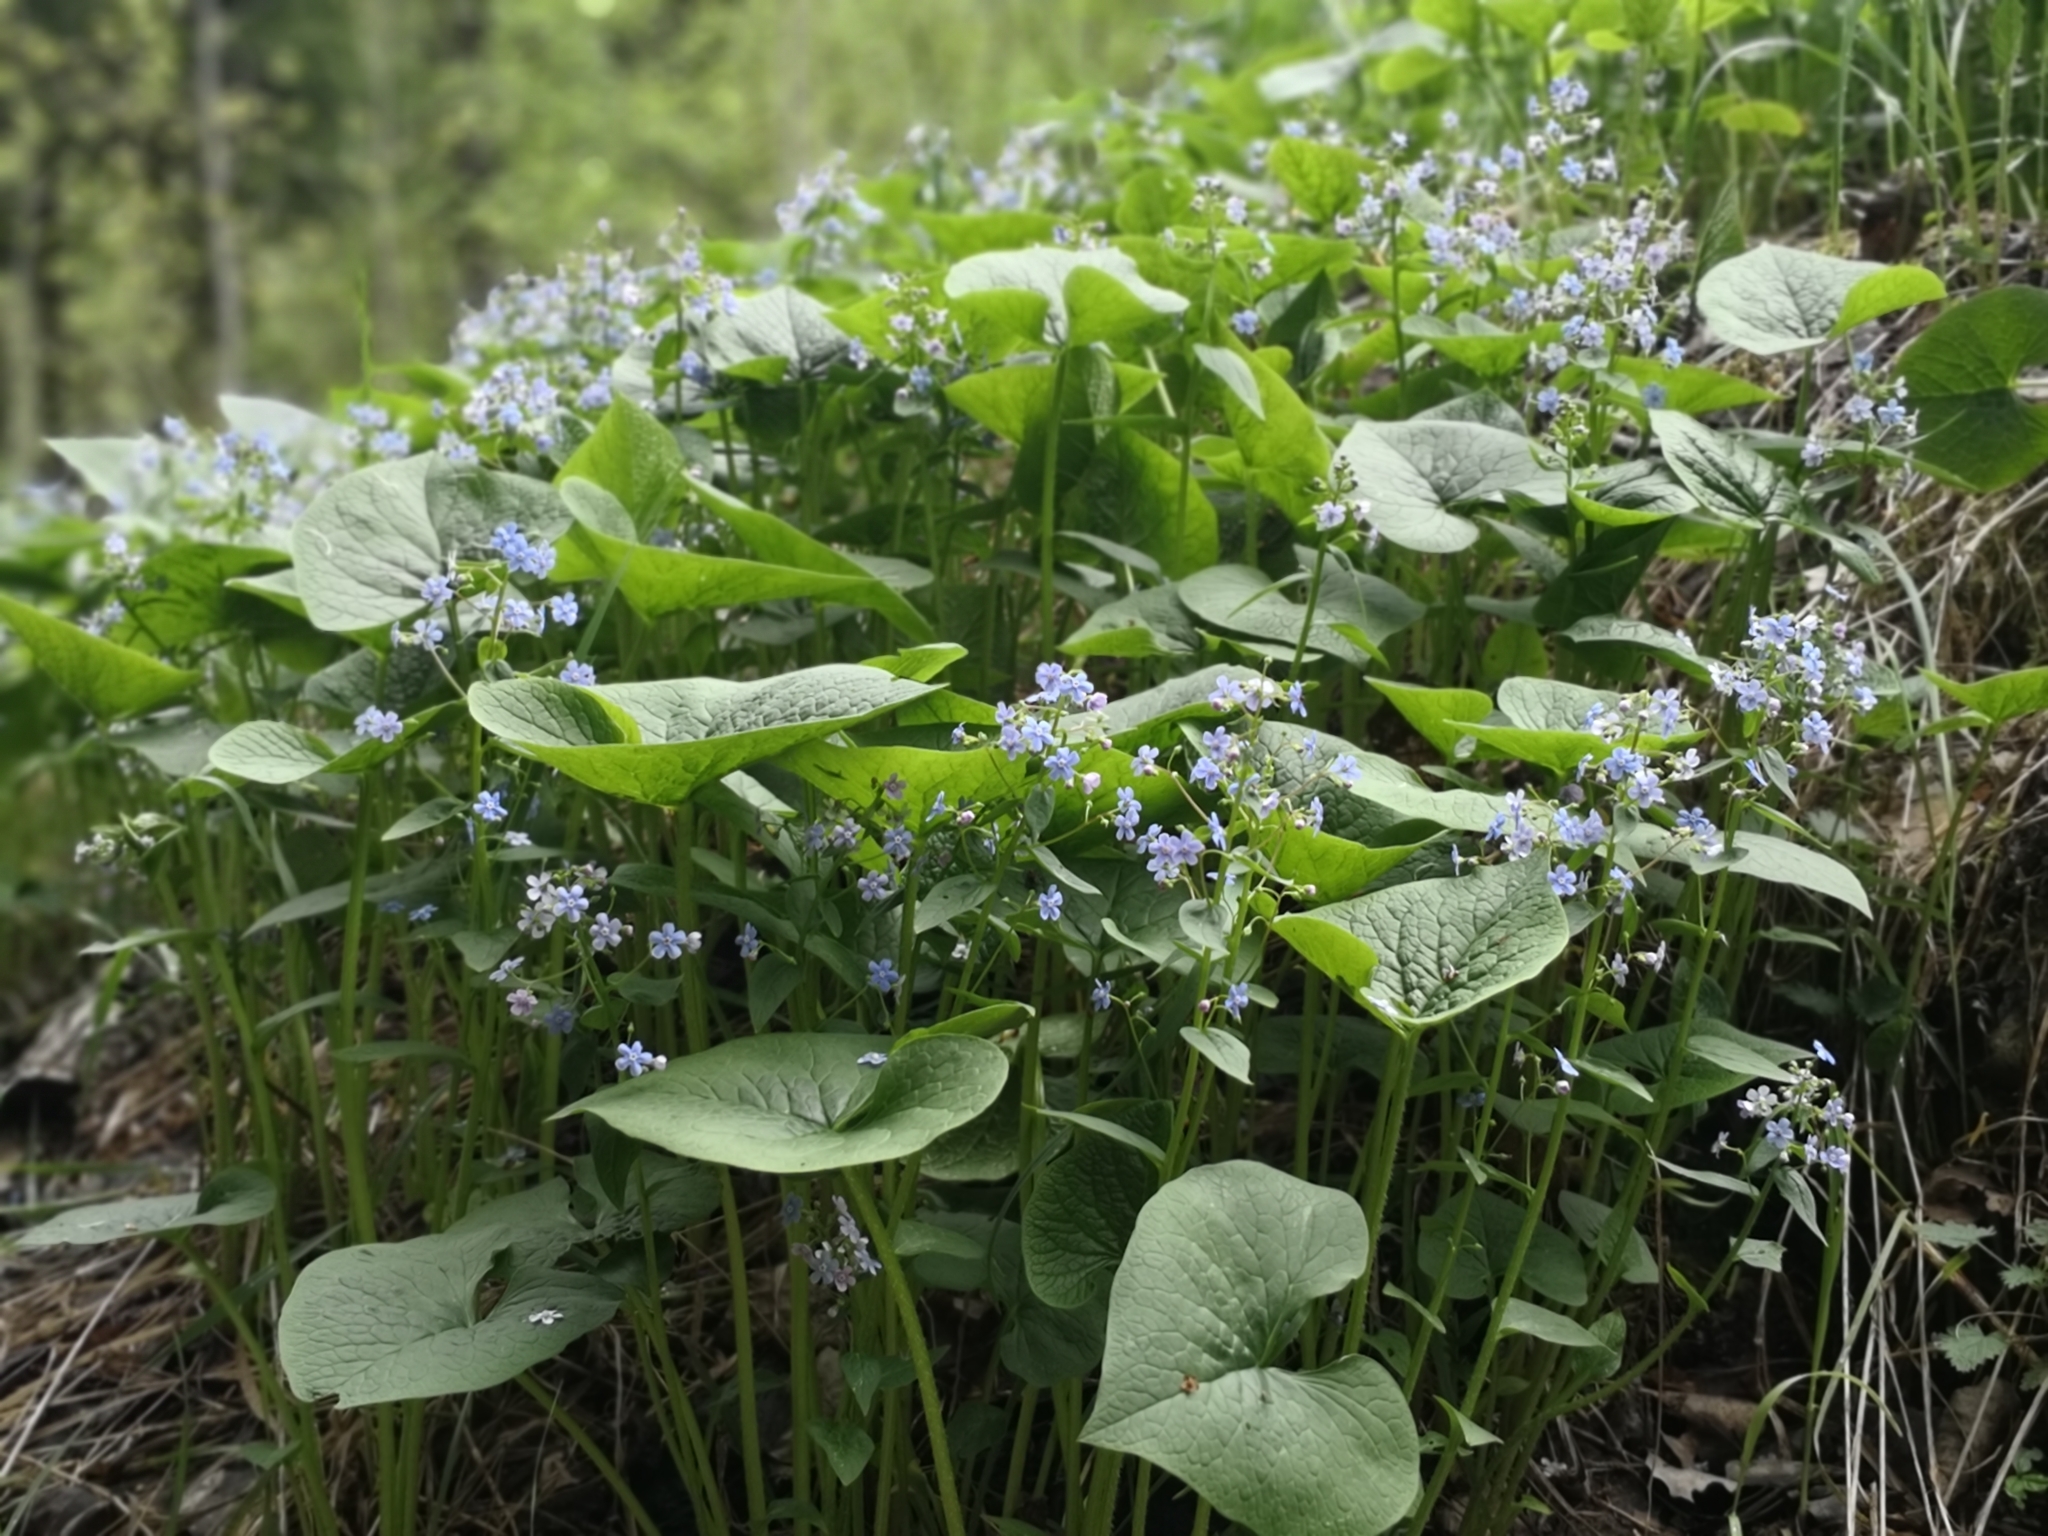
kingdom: Plantae
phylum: Tracheophyta
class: Magnoliopsida
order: Boraginales
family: Boraginaceae
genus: Brunnera
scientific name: Brunnera sibirica
